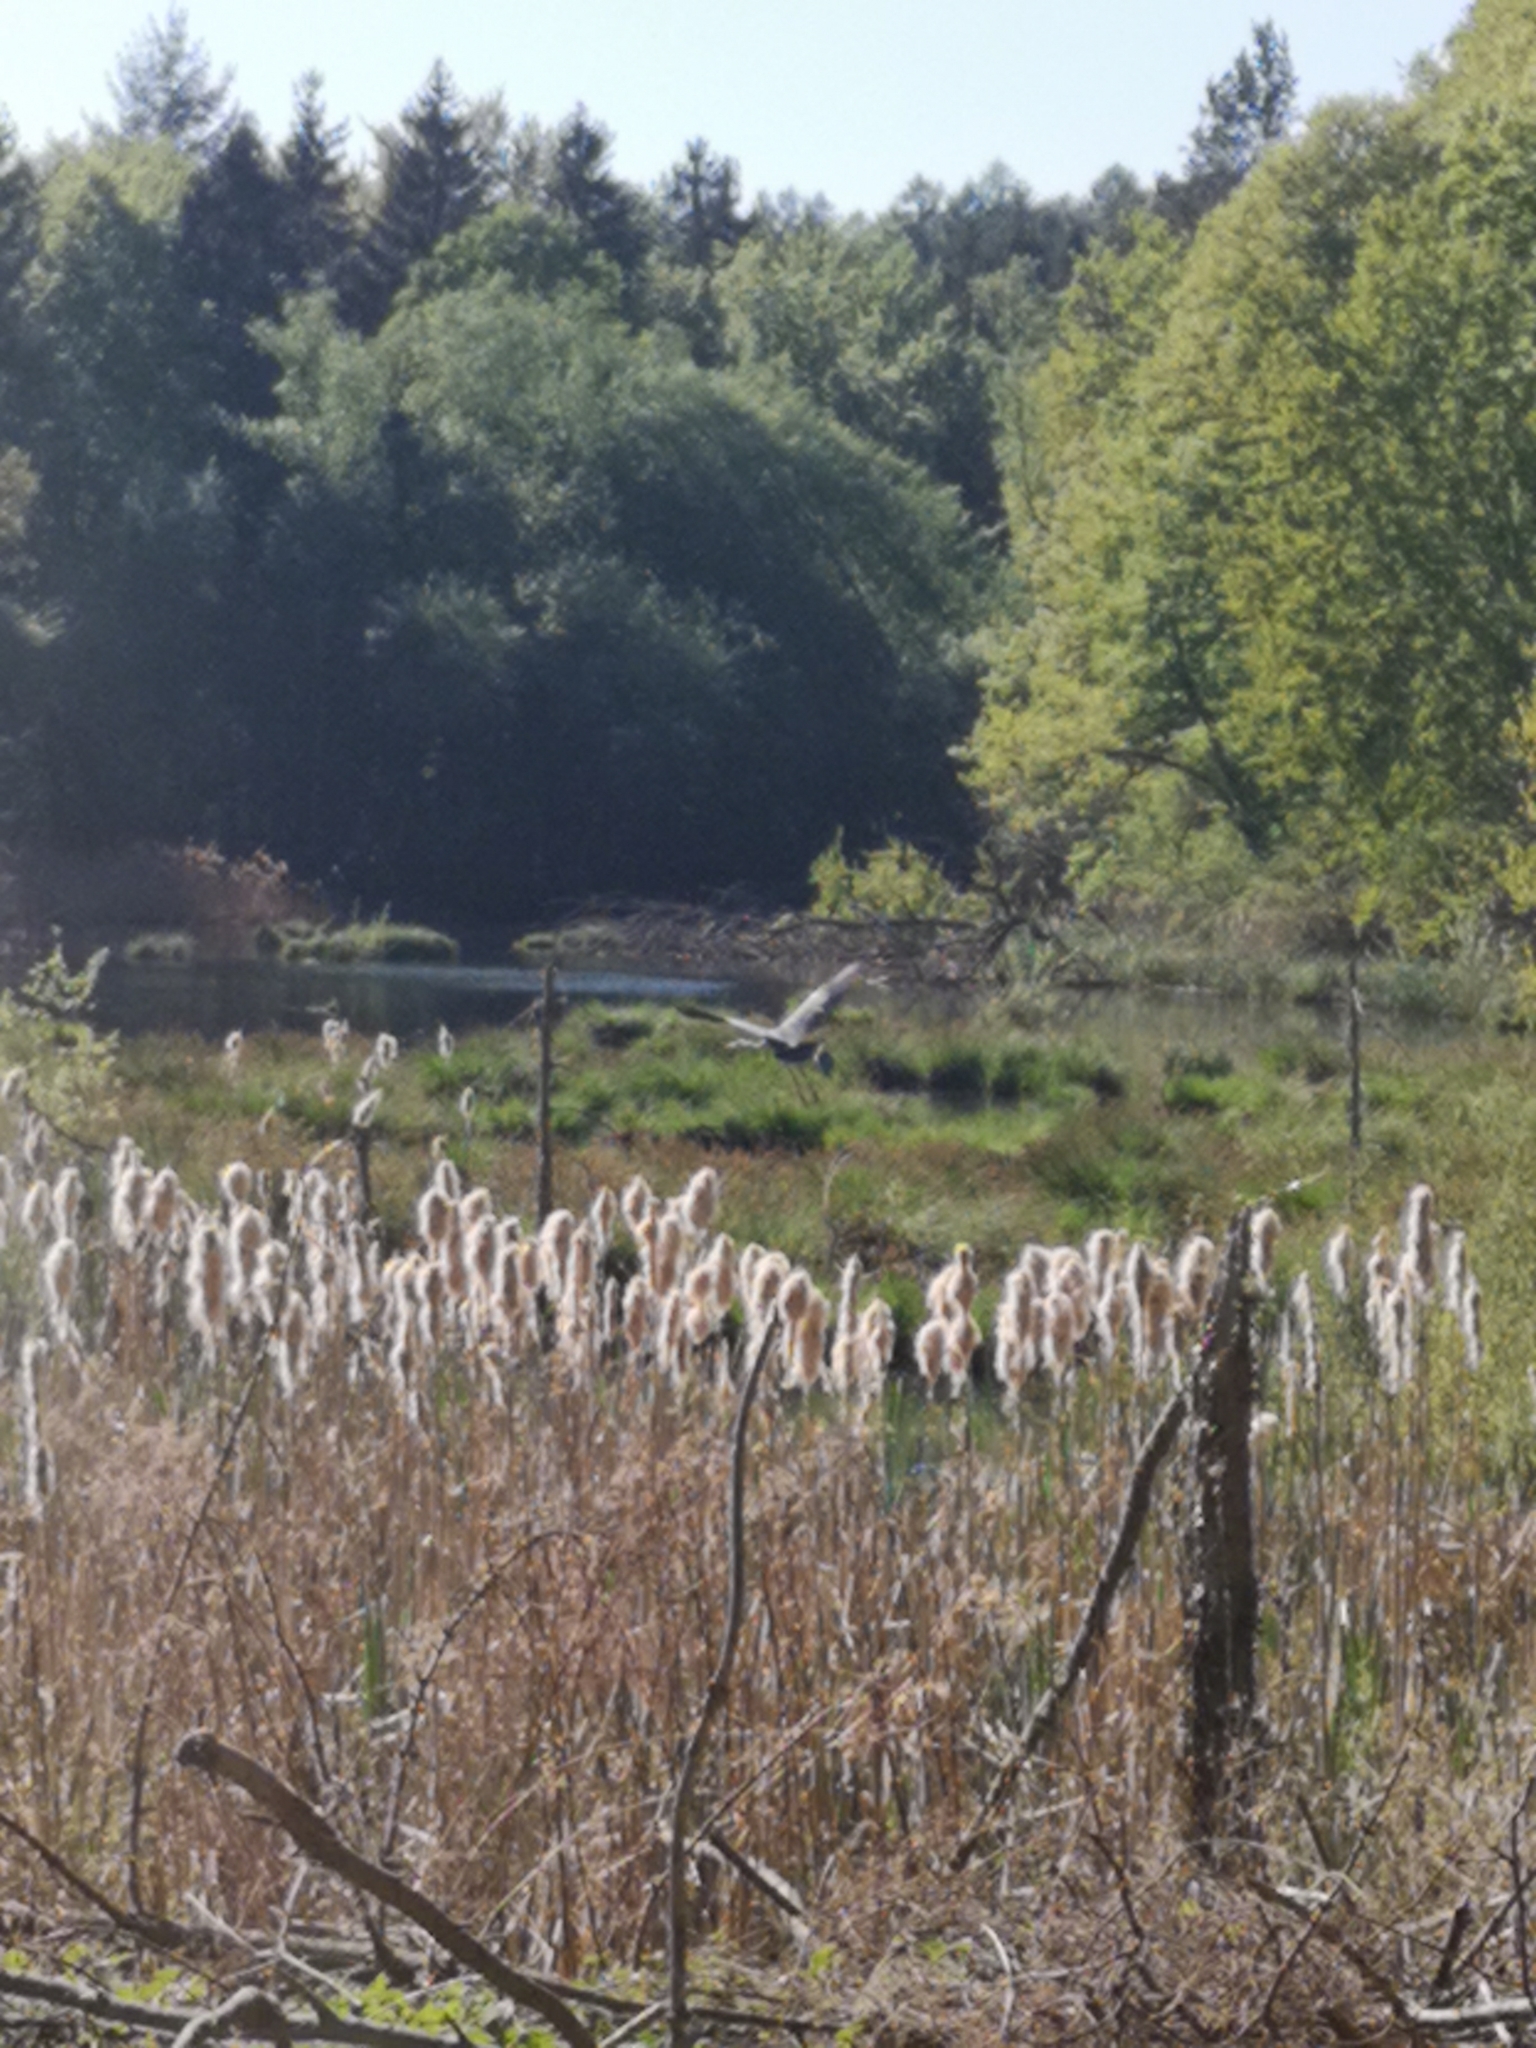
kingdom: Animalia
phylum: Chordata
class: Aves
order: Pelecaniformes
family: Ardeidae
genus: Ardea
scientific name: Ardea cinerea
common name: Grey heron
